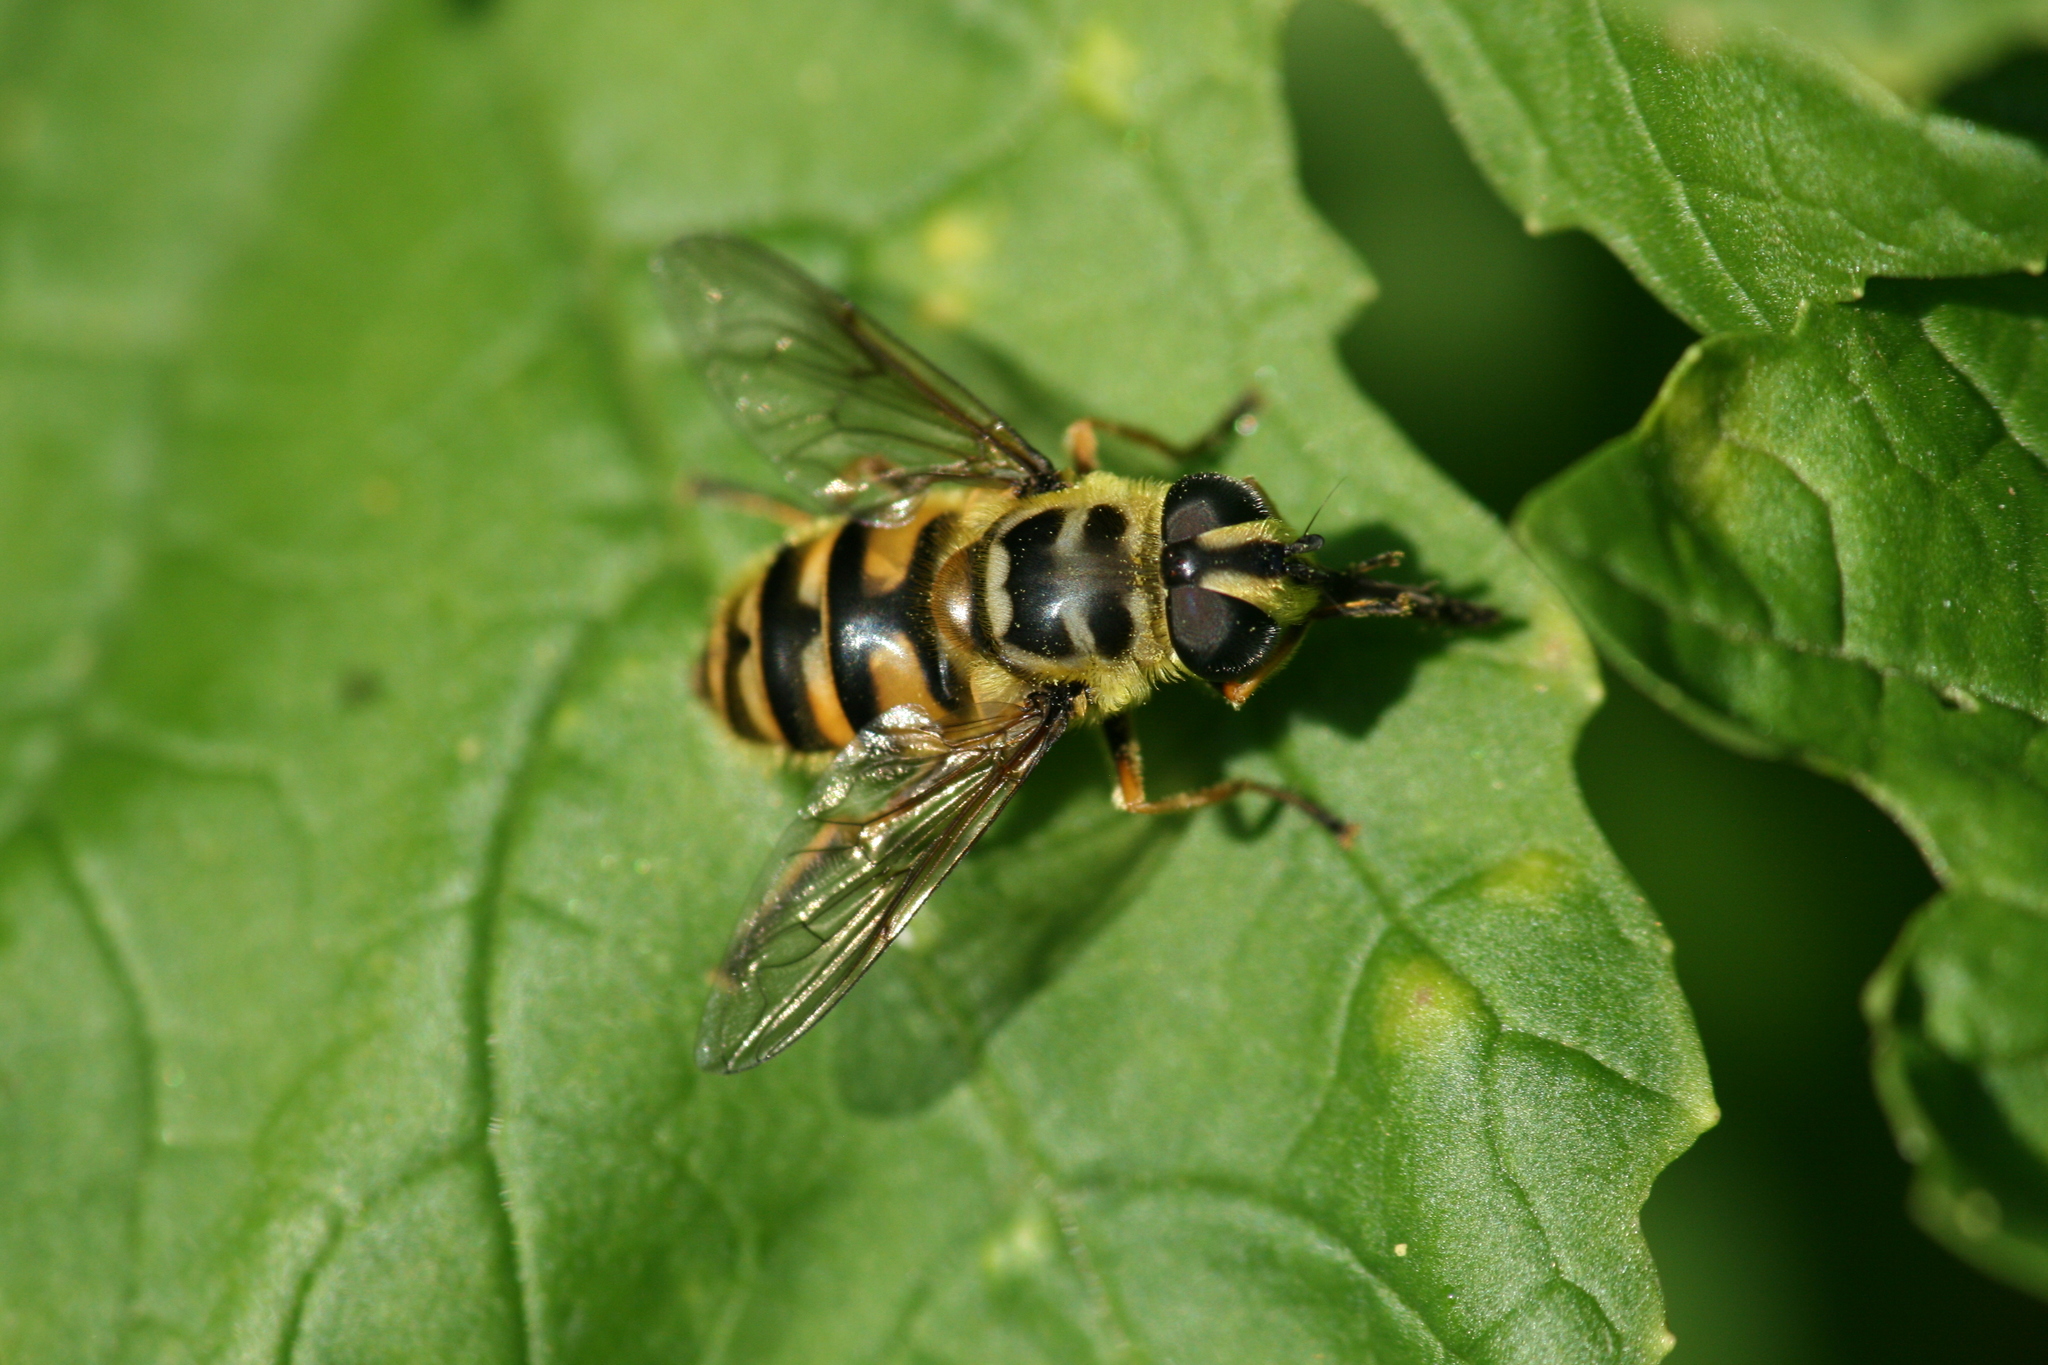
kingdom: Animalia
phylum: Arthropoda
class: Insecta
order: Diptera
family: Syrphidae
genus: Myathropa
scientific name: Myathropa florea
